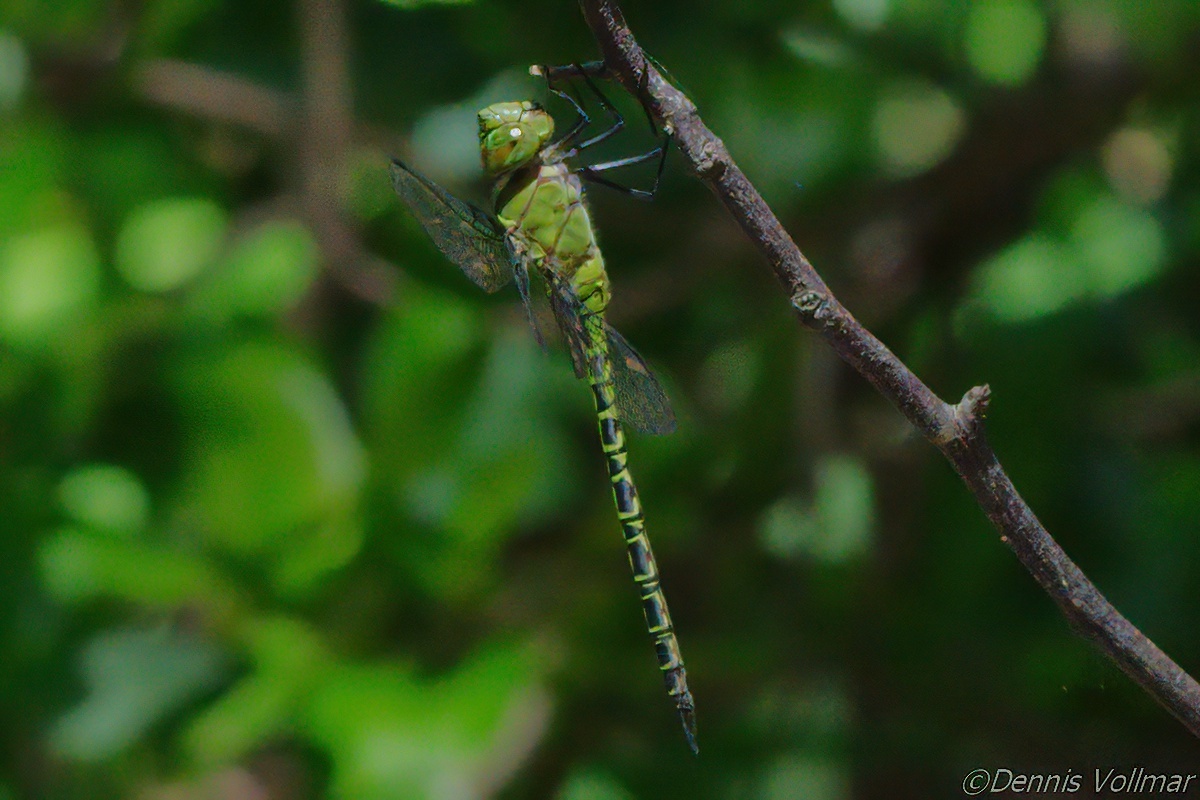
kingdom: Animalia
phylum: Arthropoda
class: Insecta
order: Odonata
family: Aeshnidae
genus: Coryphaeschna
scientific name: Coryphaeschna viriditas
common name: Mangrove darner
